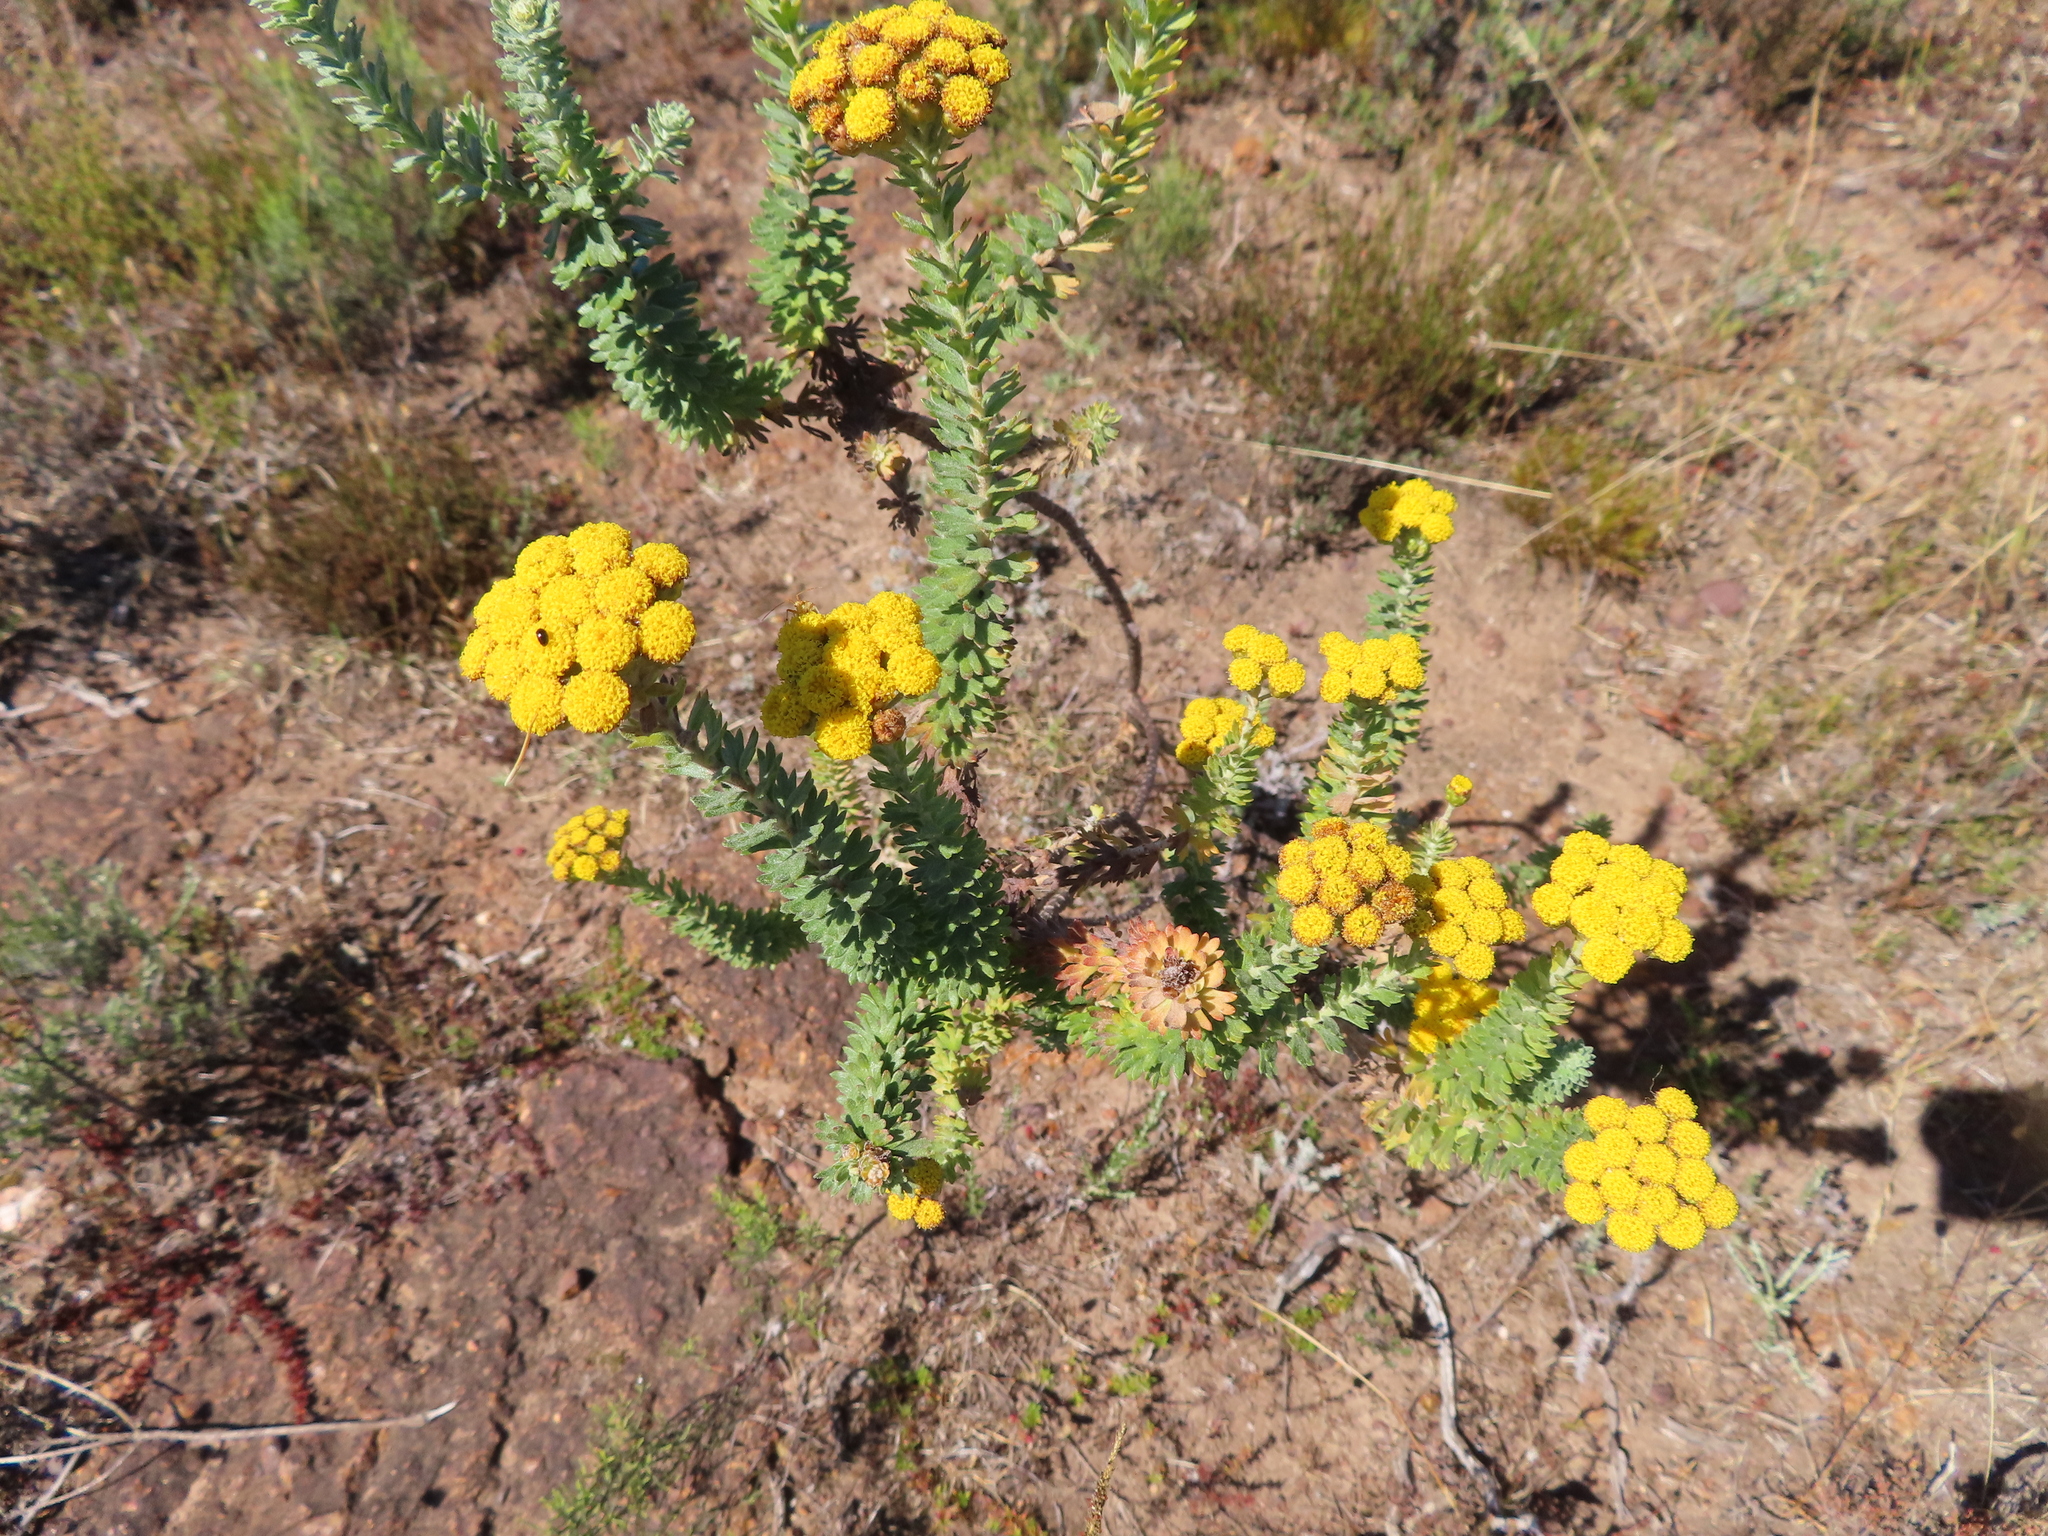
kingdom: Plantae
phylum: Tracheophyta
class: Magnoliopsida
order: Asterales
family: Asteraceae
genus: Athanasia
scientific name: Athanasia trifurcata
